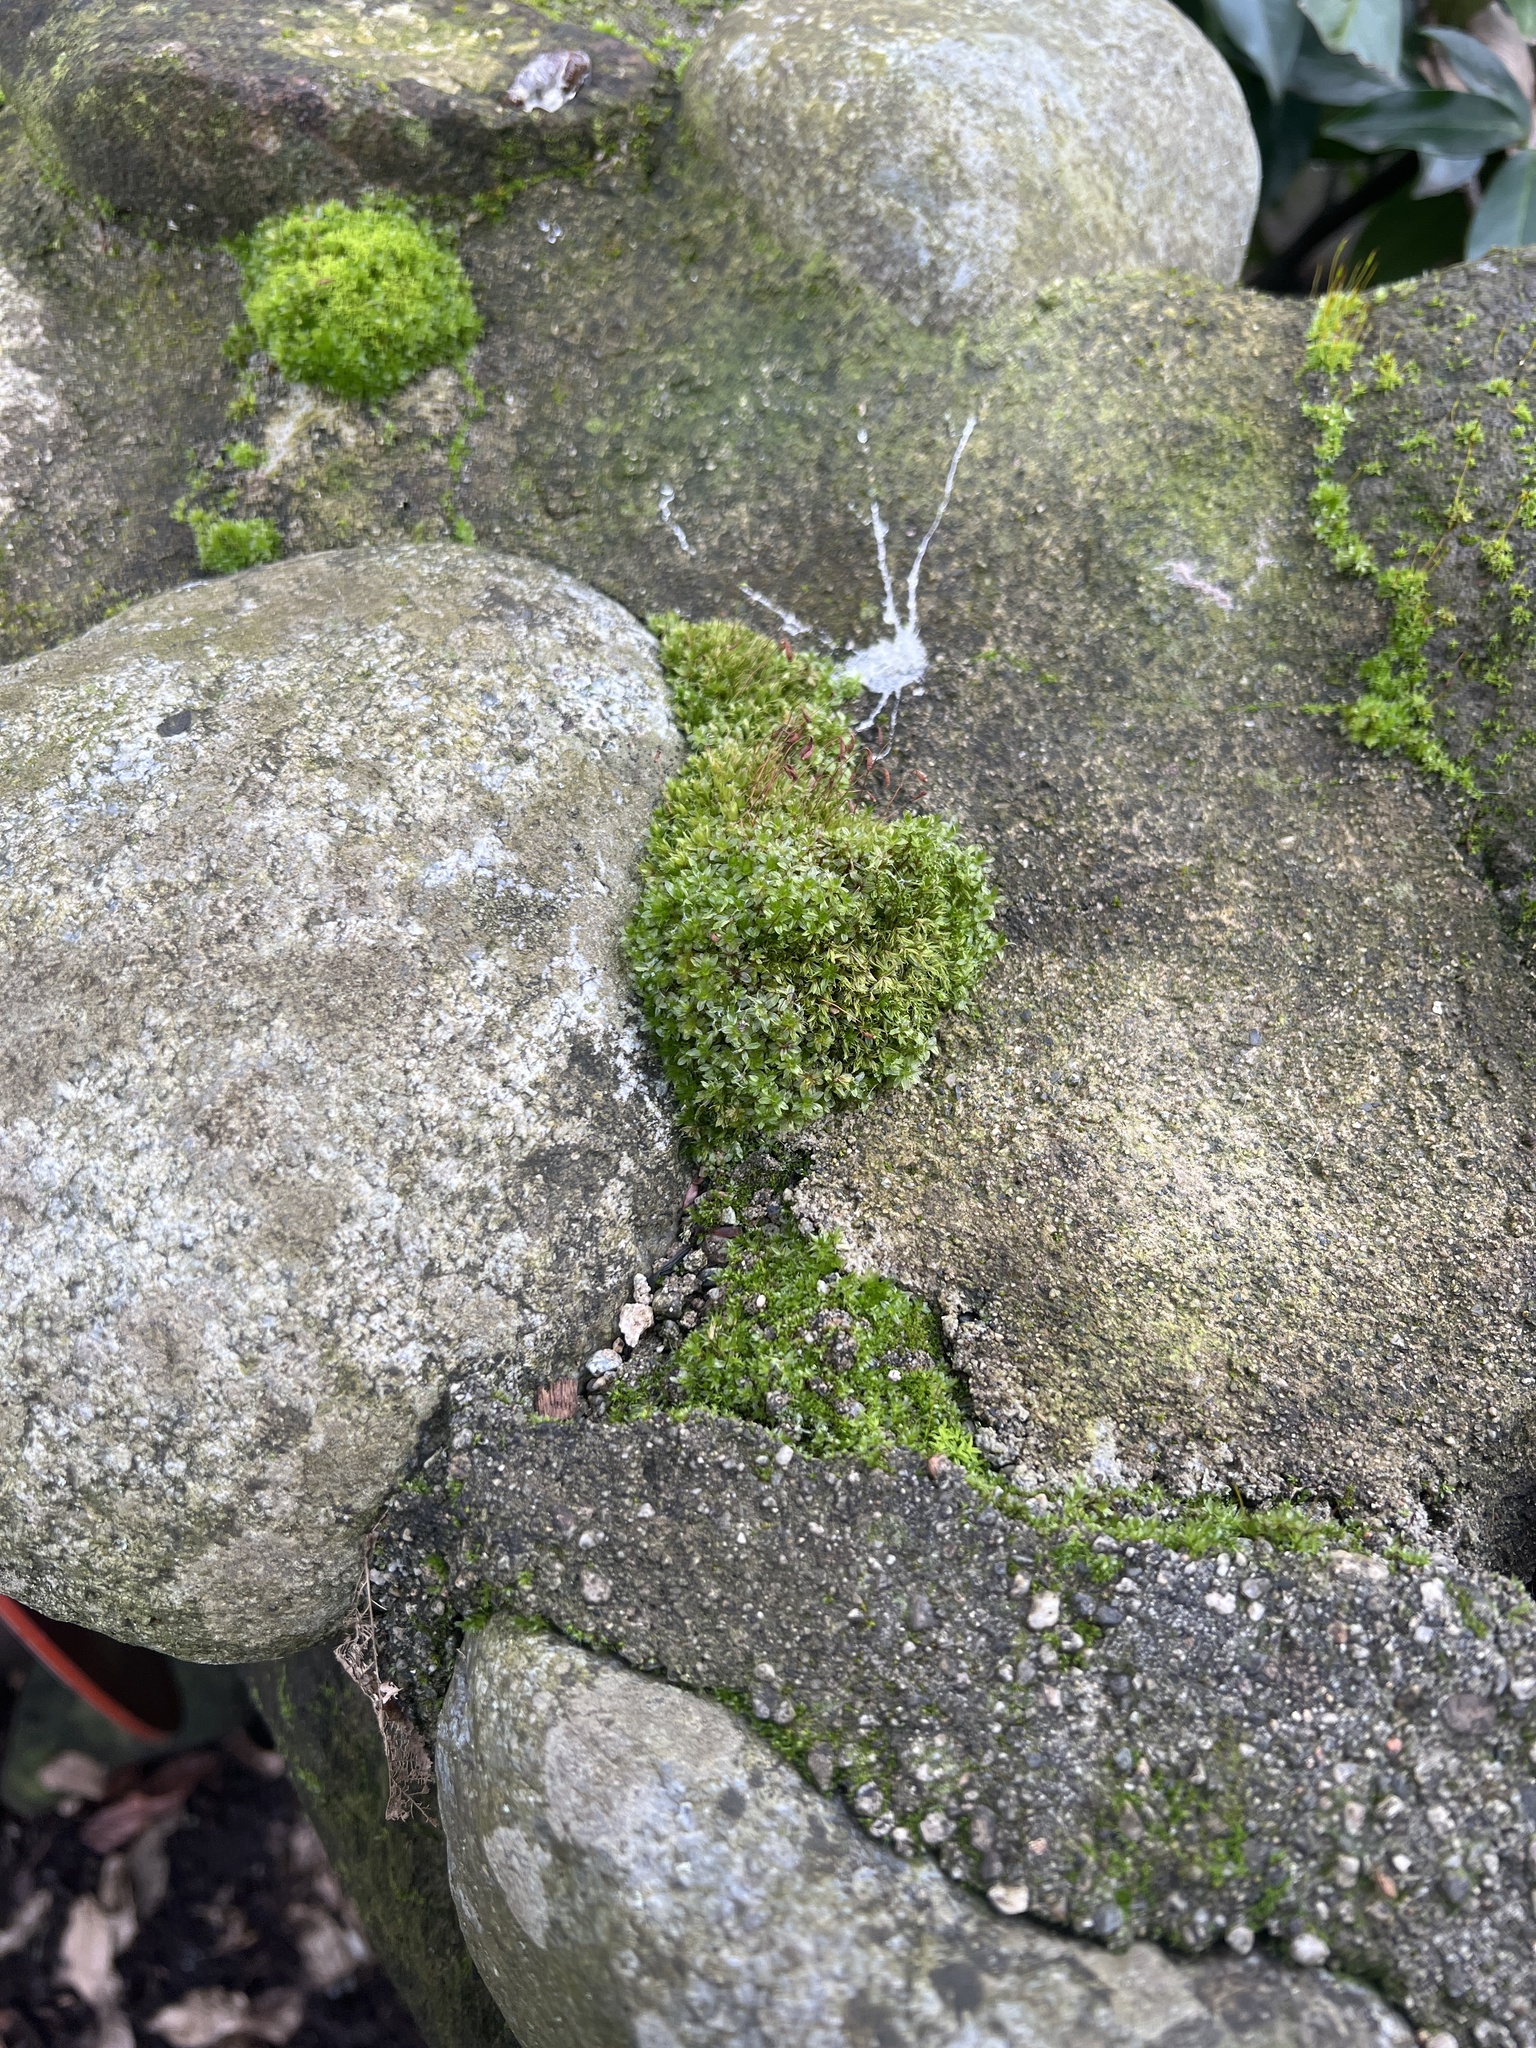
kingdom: Plantae
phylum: Bryophyta
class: Bryopsida
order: Bryales
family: Bryaceae
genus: Rosulabryum
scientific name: Rosulabryum capillare
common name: Capillary thread-moss
